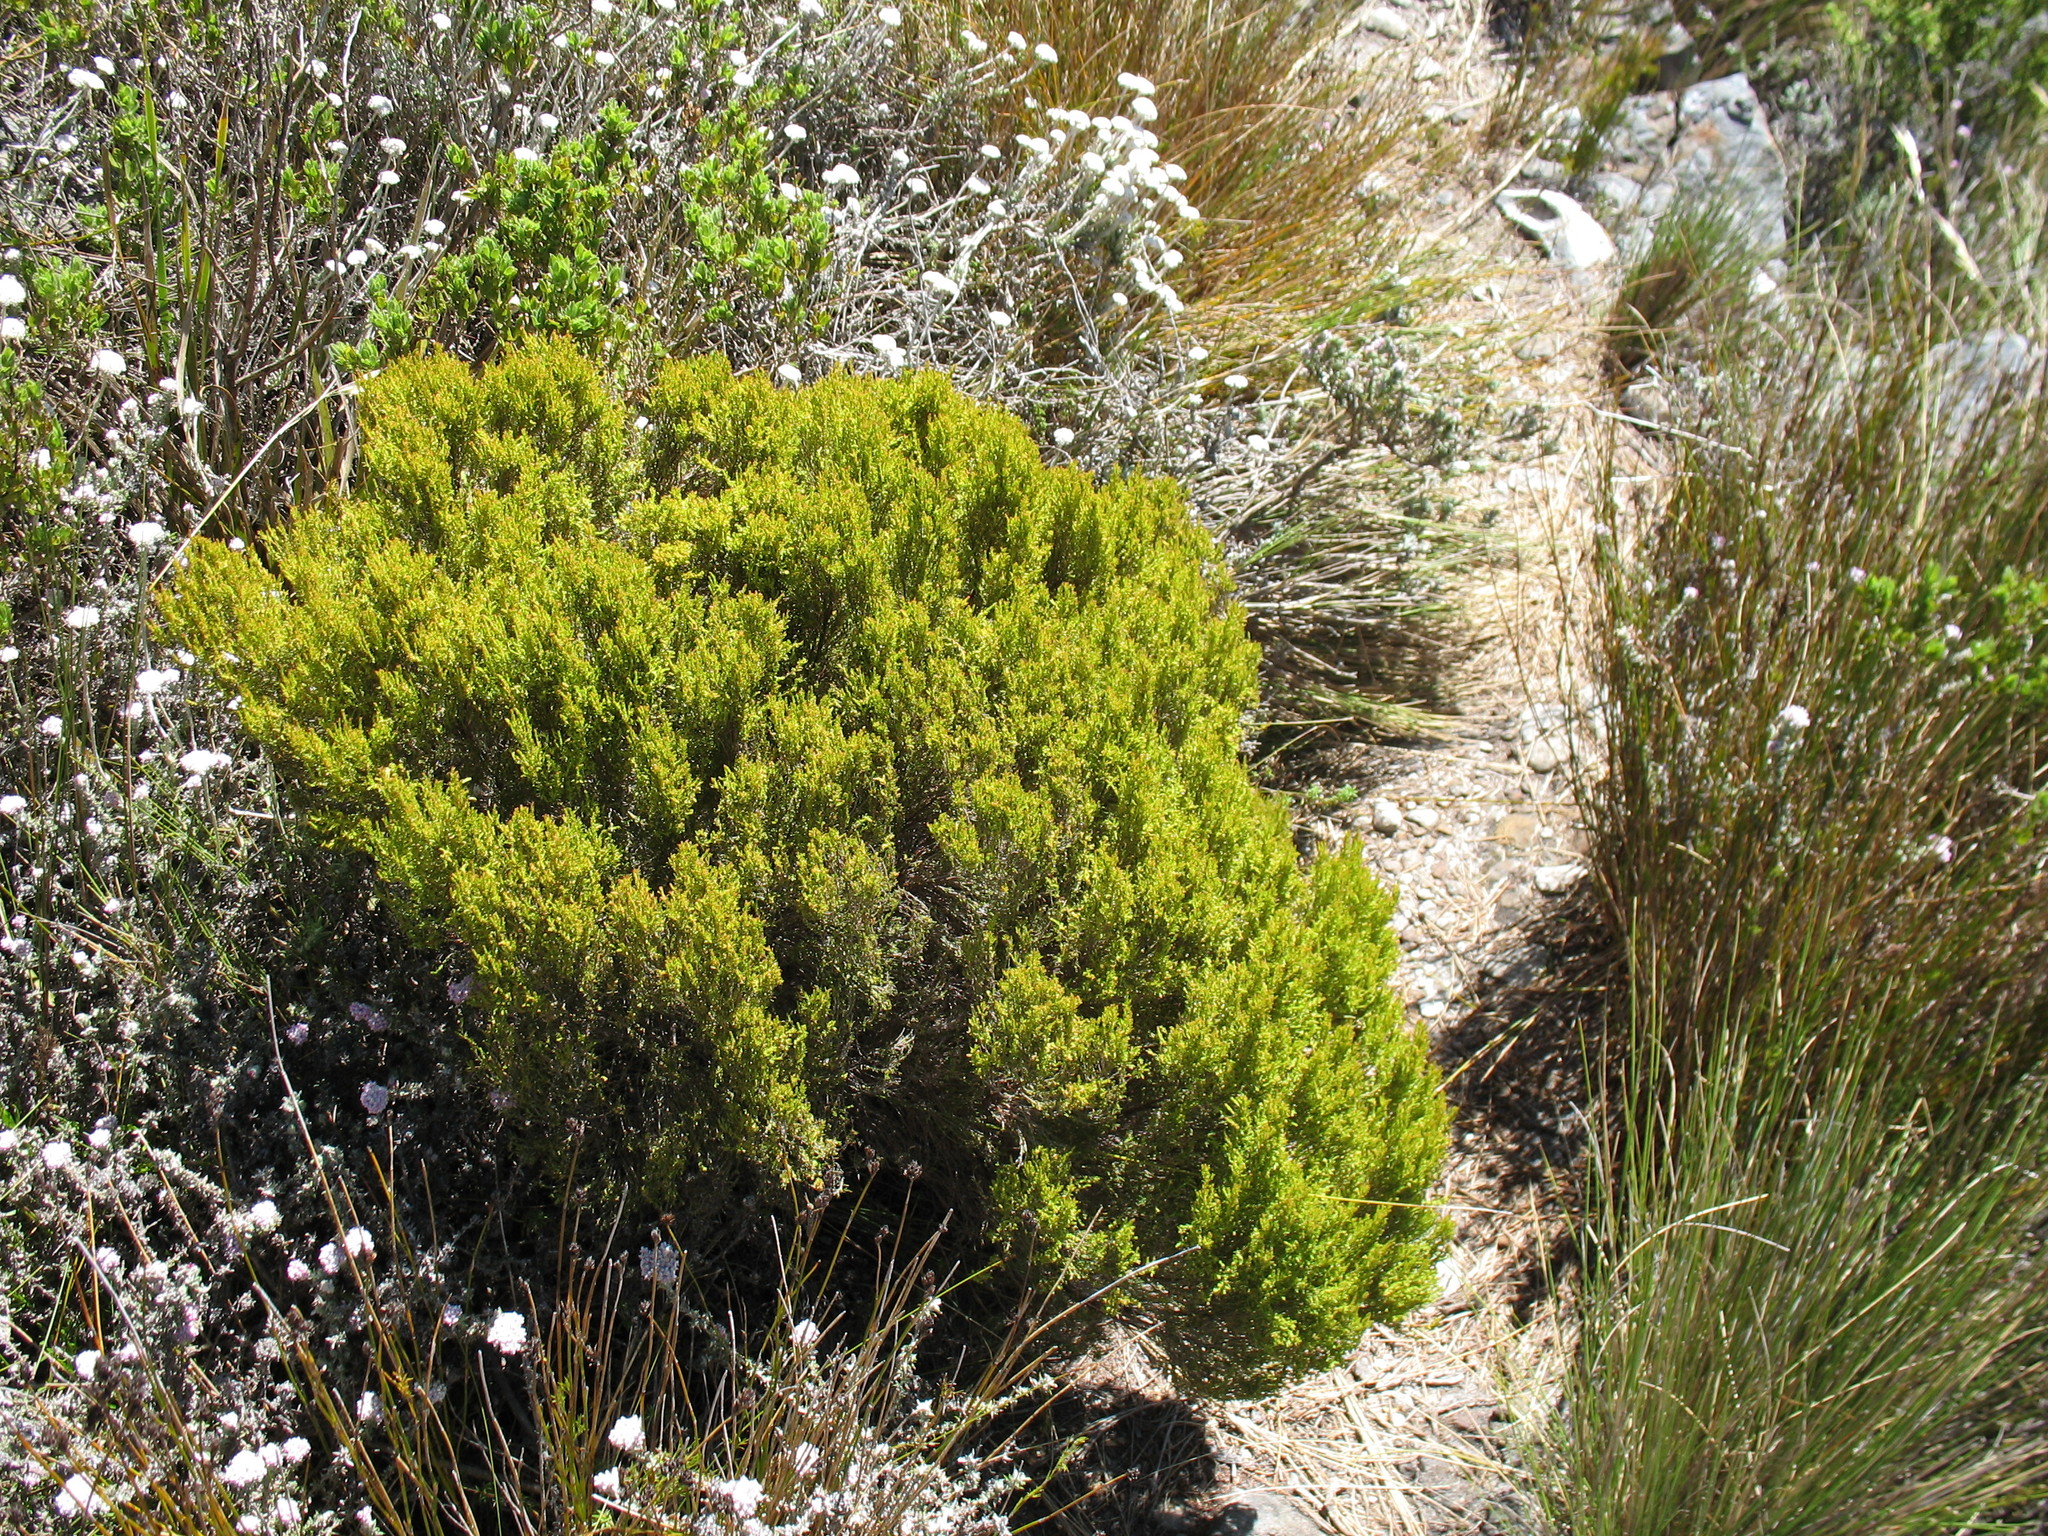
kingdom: Plantae
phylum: Tracheophyta
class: Magnoliopsida
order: Ericales
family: Ericaceae
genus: Erica
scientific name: Erica hispidula
